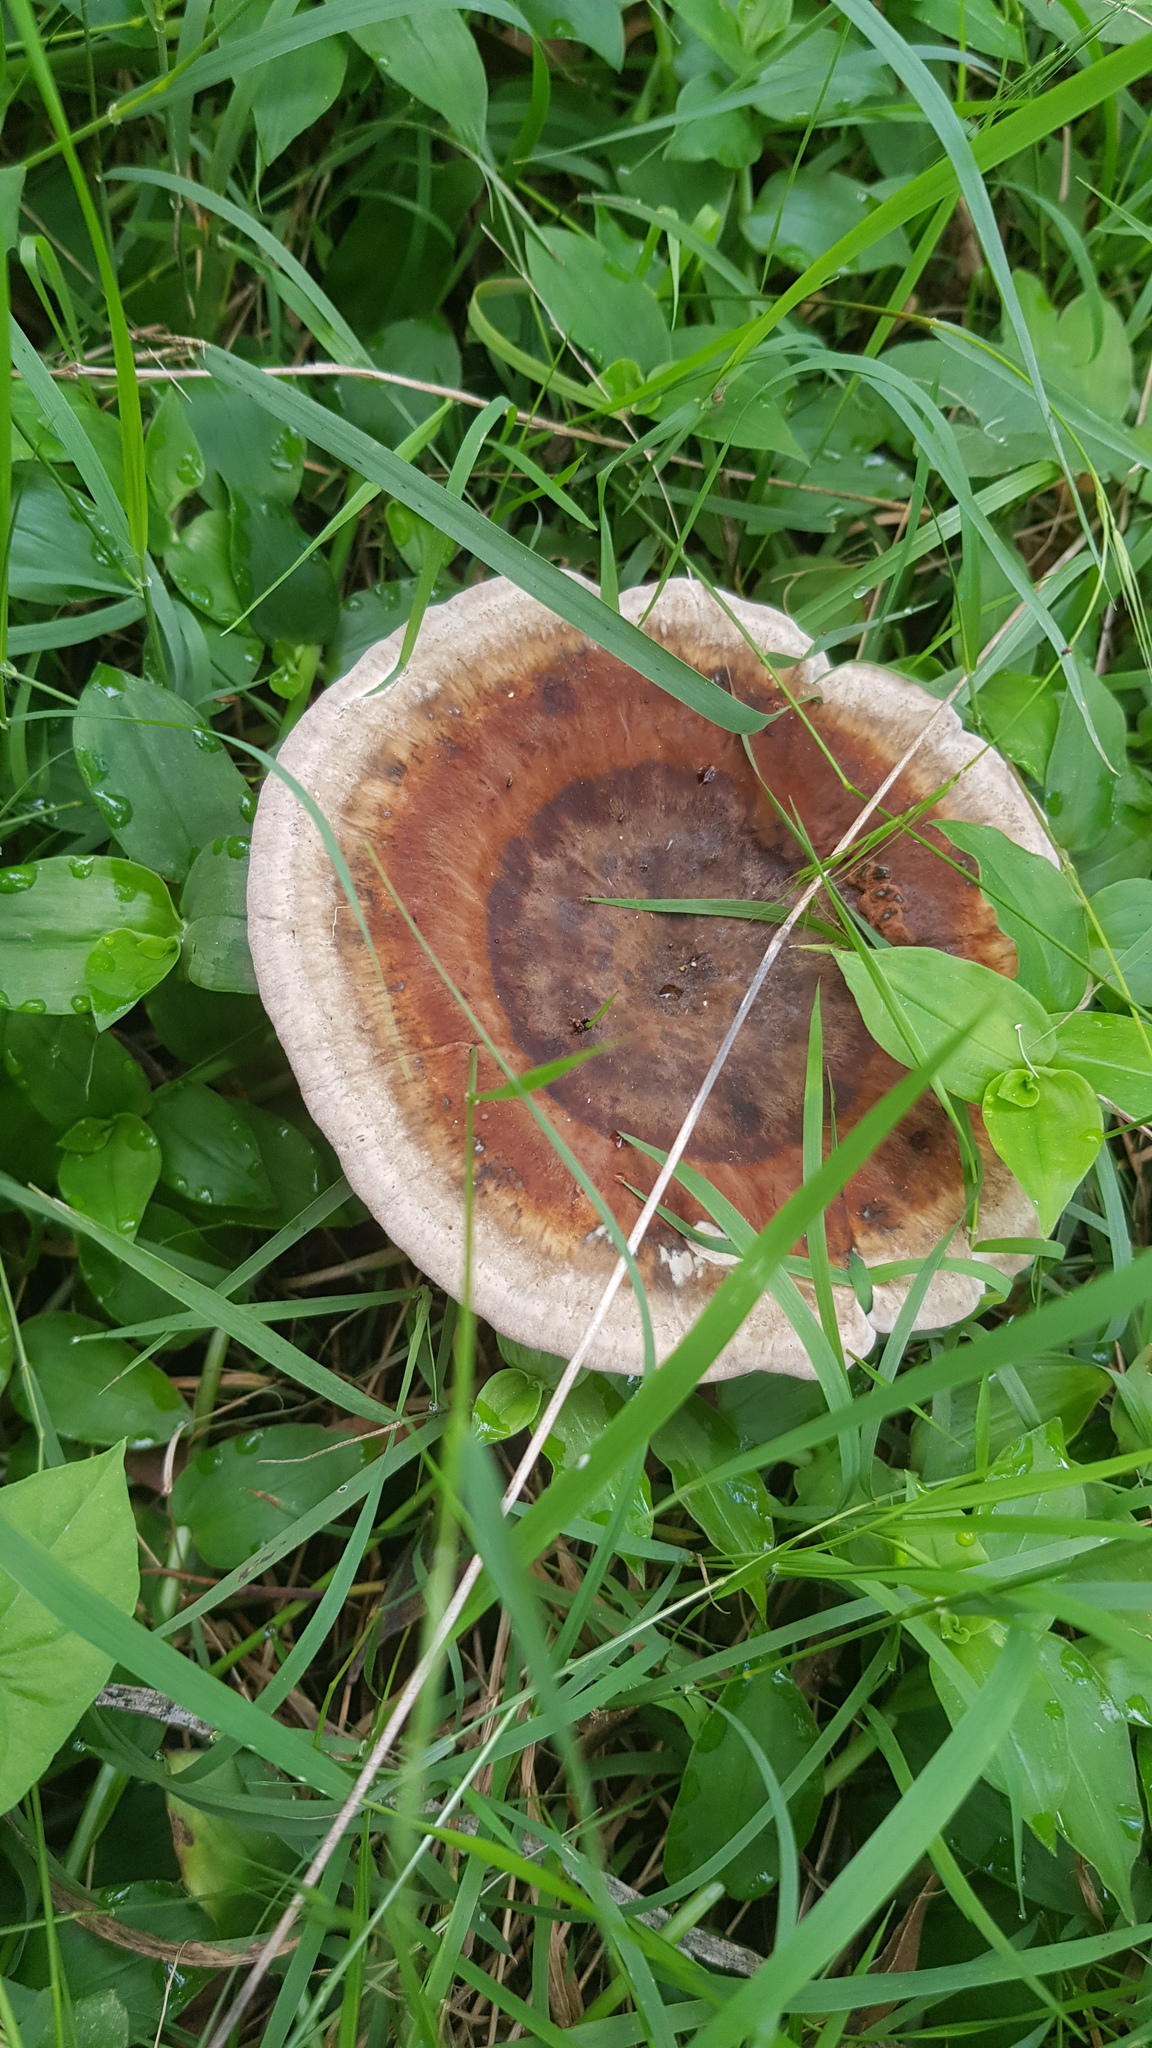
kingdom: Fungi
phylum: Basidiomycota
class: Agaricomycetes
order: Polyporales
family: Ganodermataceae
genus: Sanguinoderma
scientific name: Sanguinoderma rude
